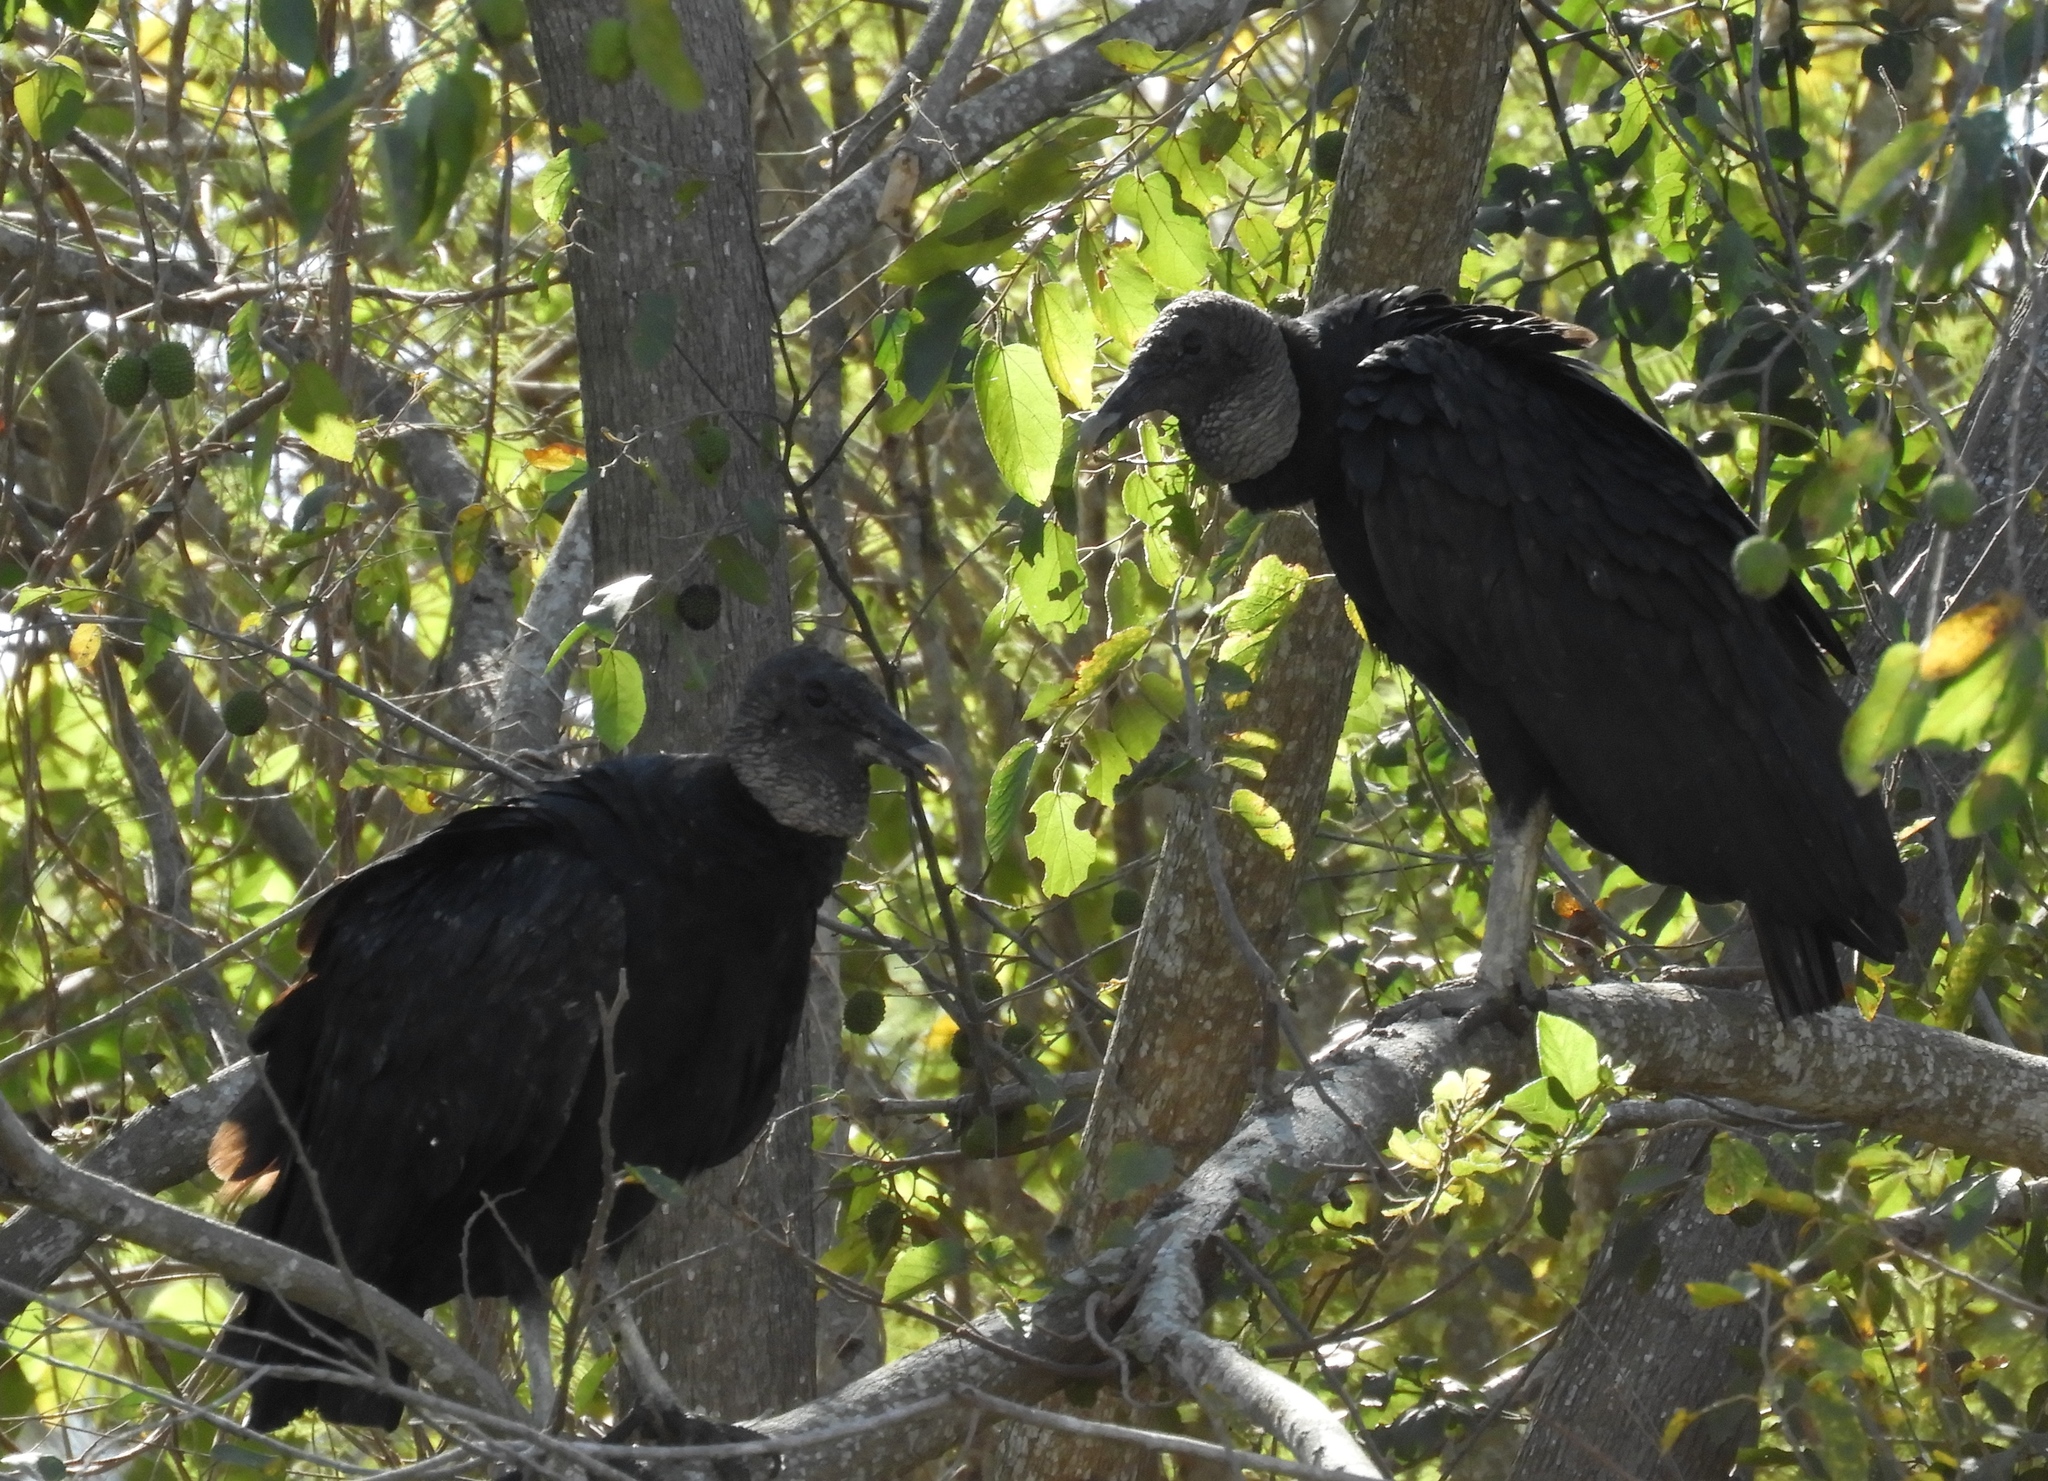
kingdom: Animalia
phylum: Chordata
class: Aves
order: Accipitriformes
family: Cathartidae
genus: Coragyps
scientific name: Coragyps atratus
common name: Black vulture
